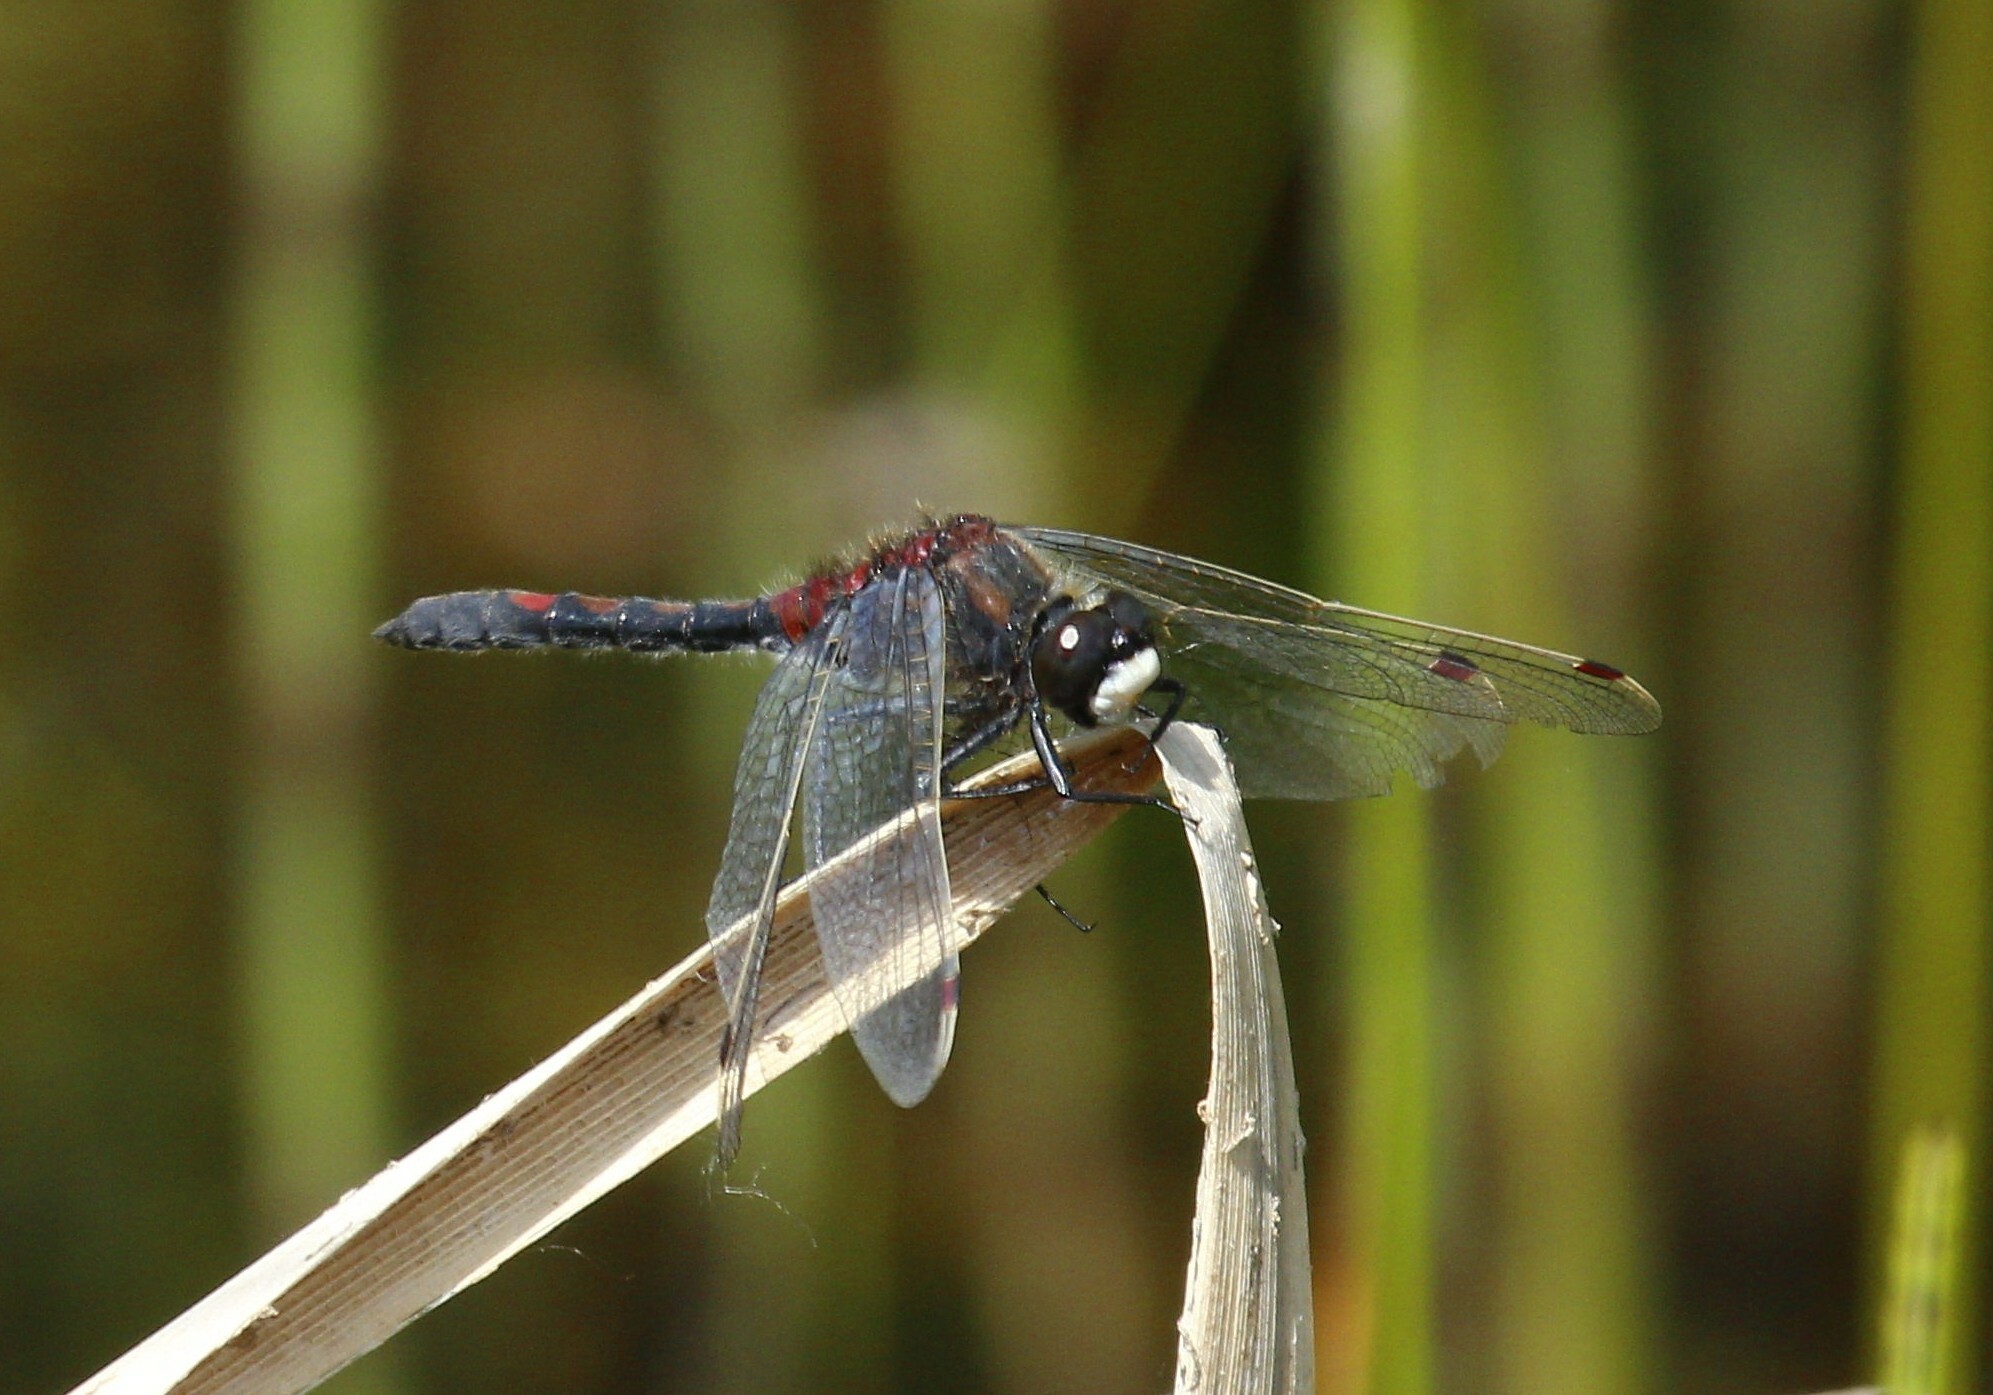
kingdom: Animalia
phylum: Arthropoda
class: Insecta
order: Odonata
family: Libellulidae
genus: Leucorrhinia
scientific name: Leucorrhinia rubicunda
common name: Ruby whiteface
